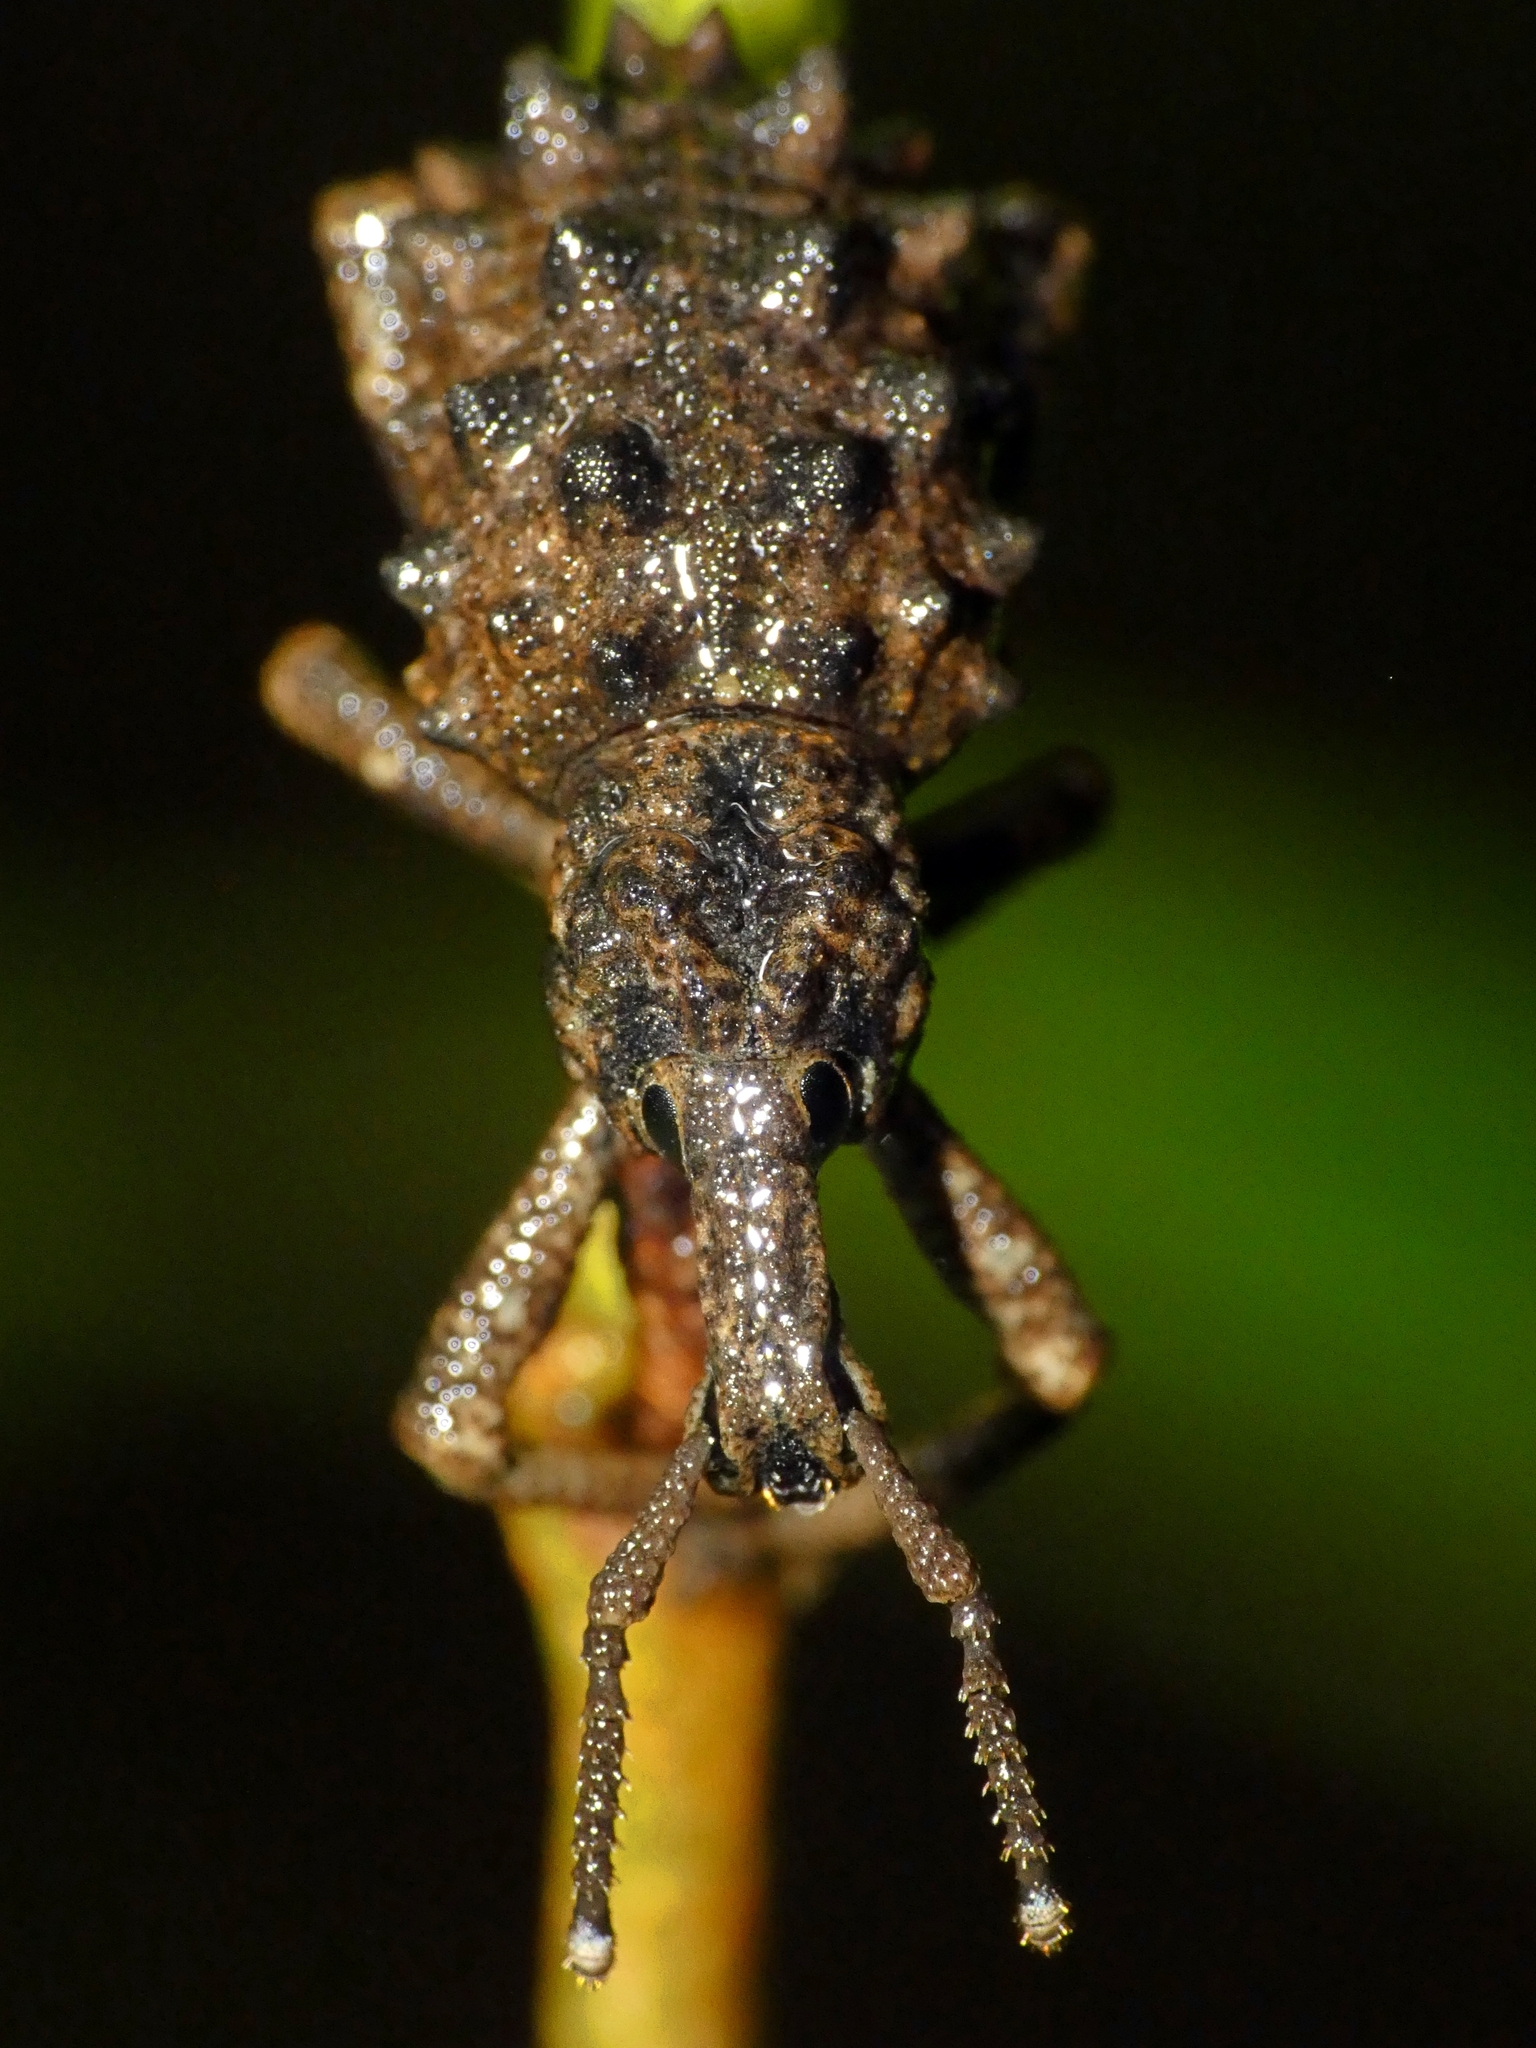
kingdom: Animalia
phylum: Arthropoda
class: Insecta
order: Coleoptera
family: Curculionidae
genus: Leptopius
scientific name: Leptopius brachystylus
